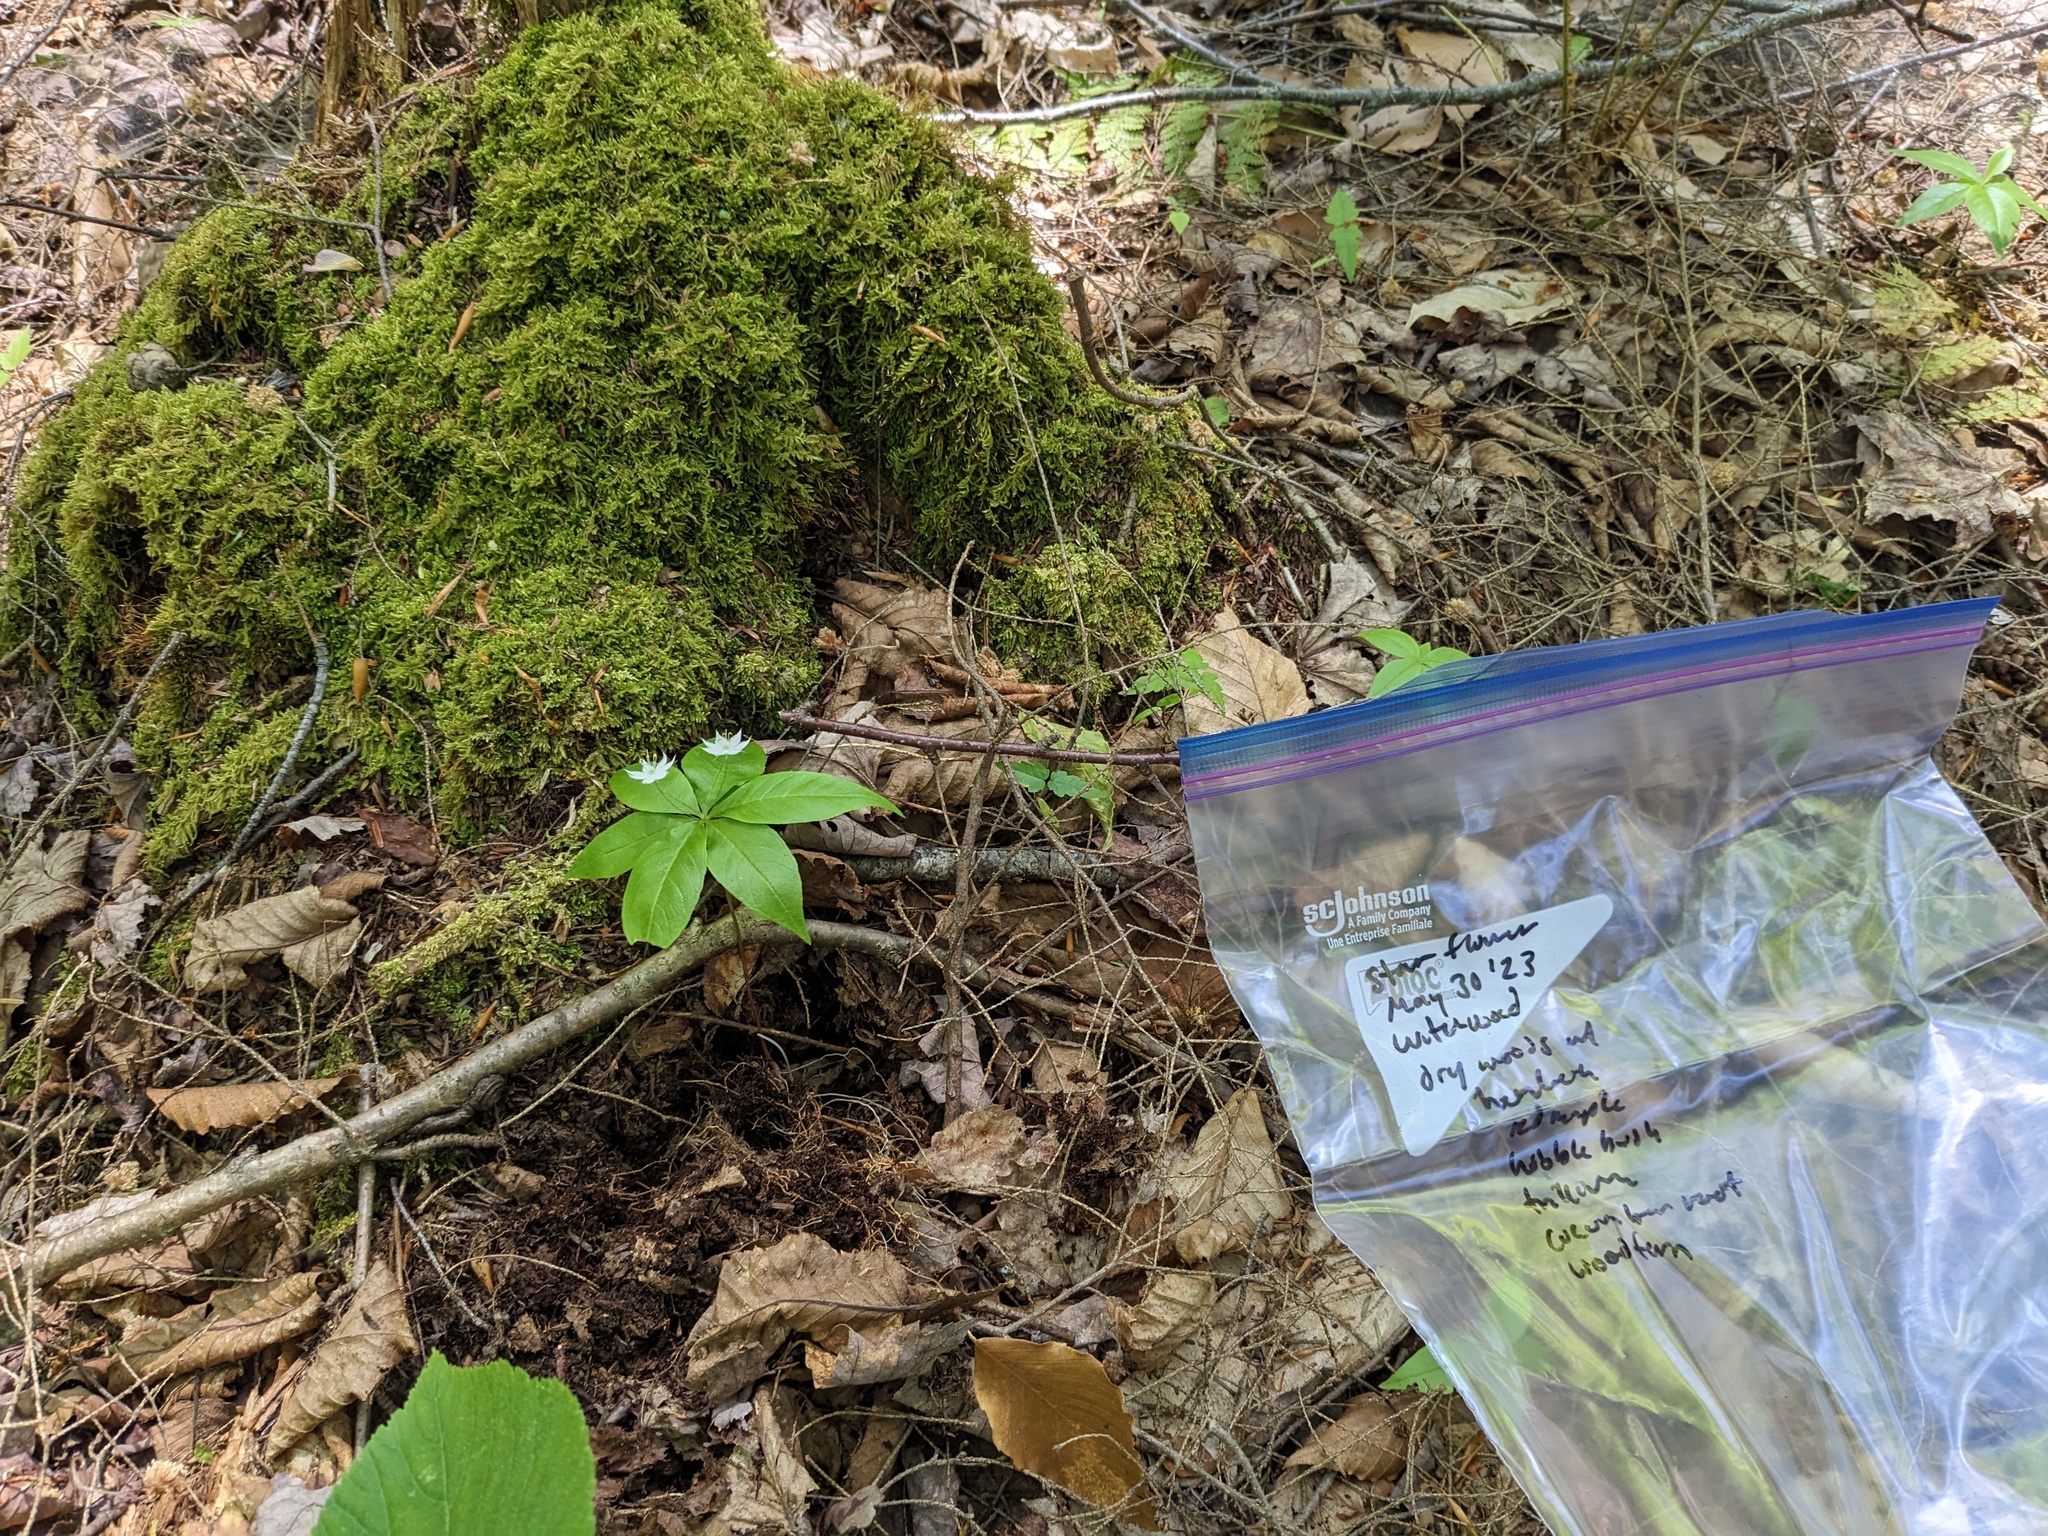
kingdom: Plantae
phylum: Tracheophyta
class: Magnoliopsida
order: Ericales
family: Primulaceae
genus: Lysimachia
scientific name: Lysimachia borealis
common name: American starflower
